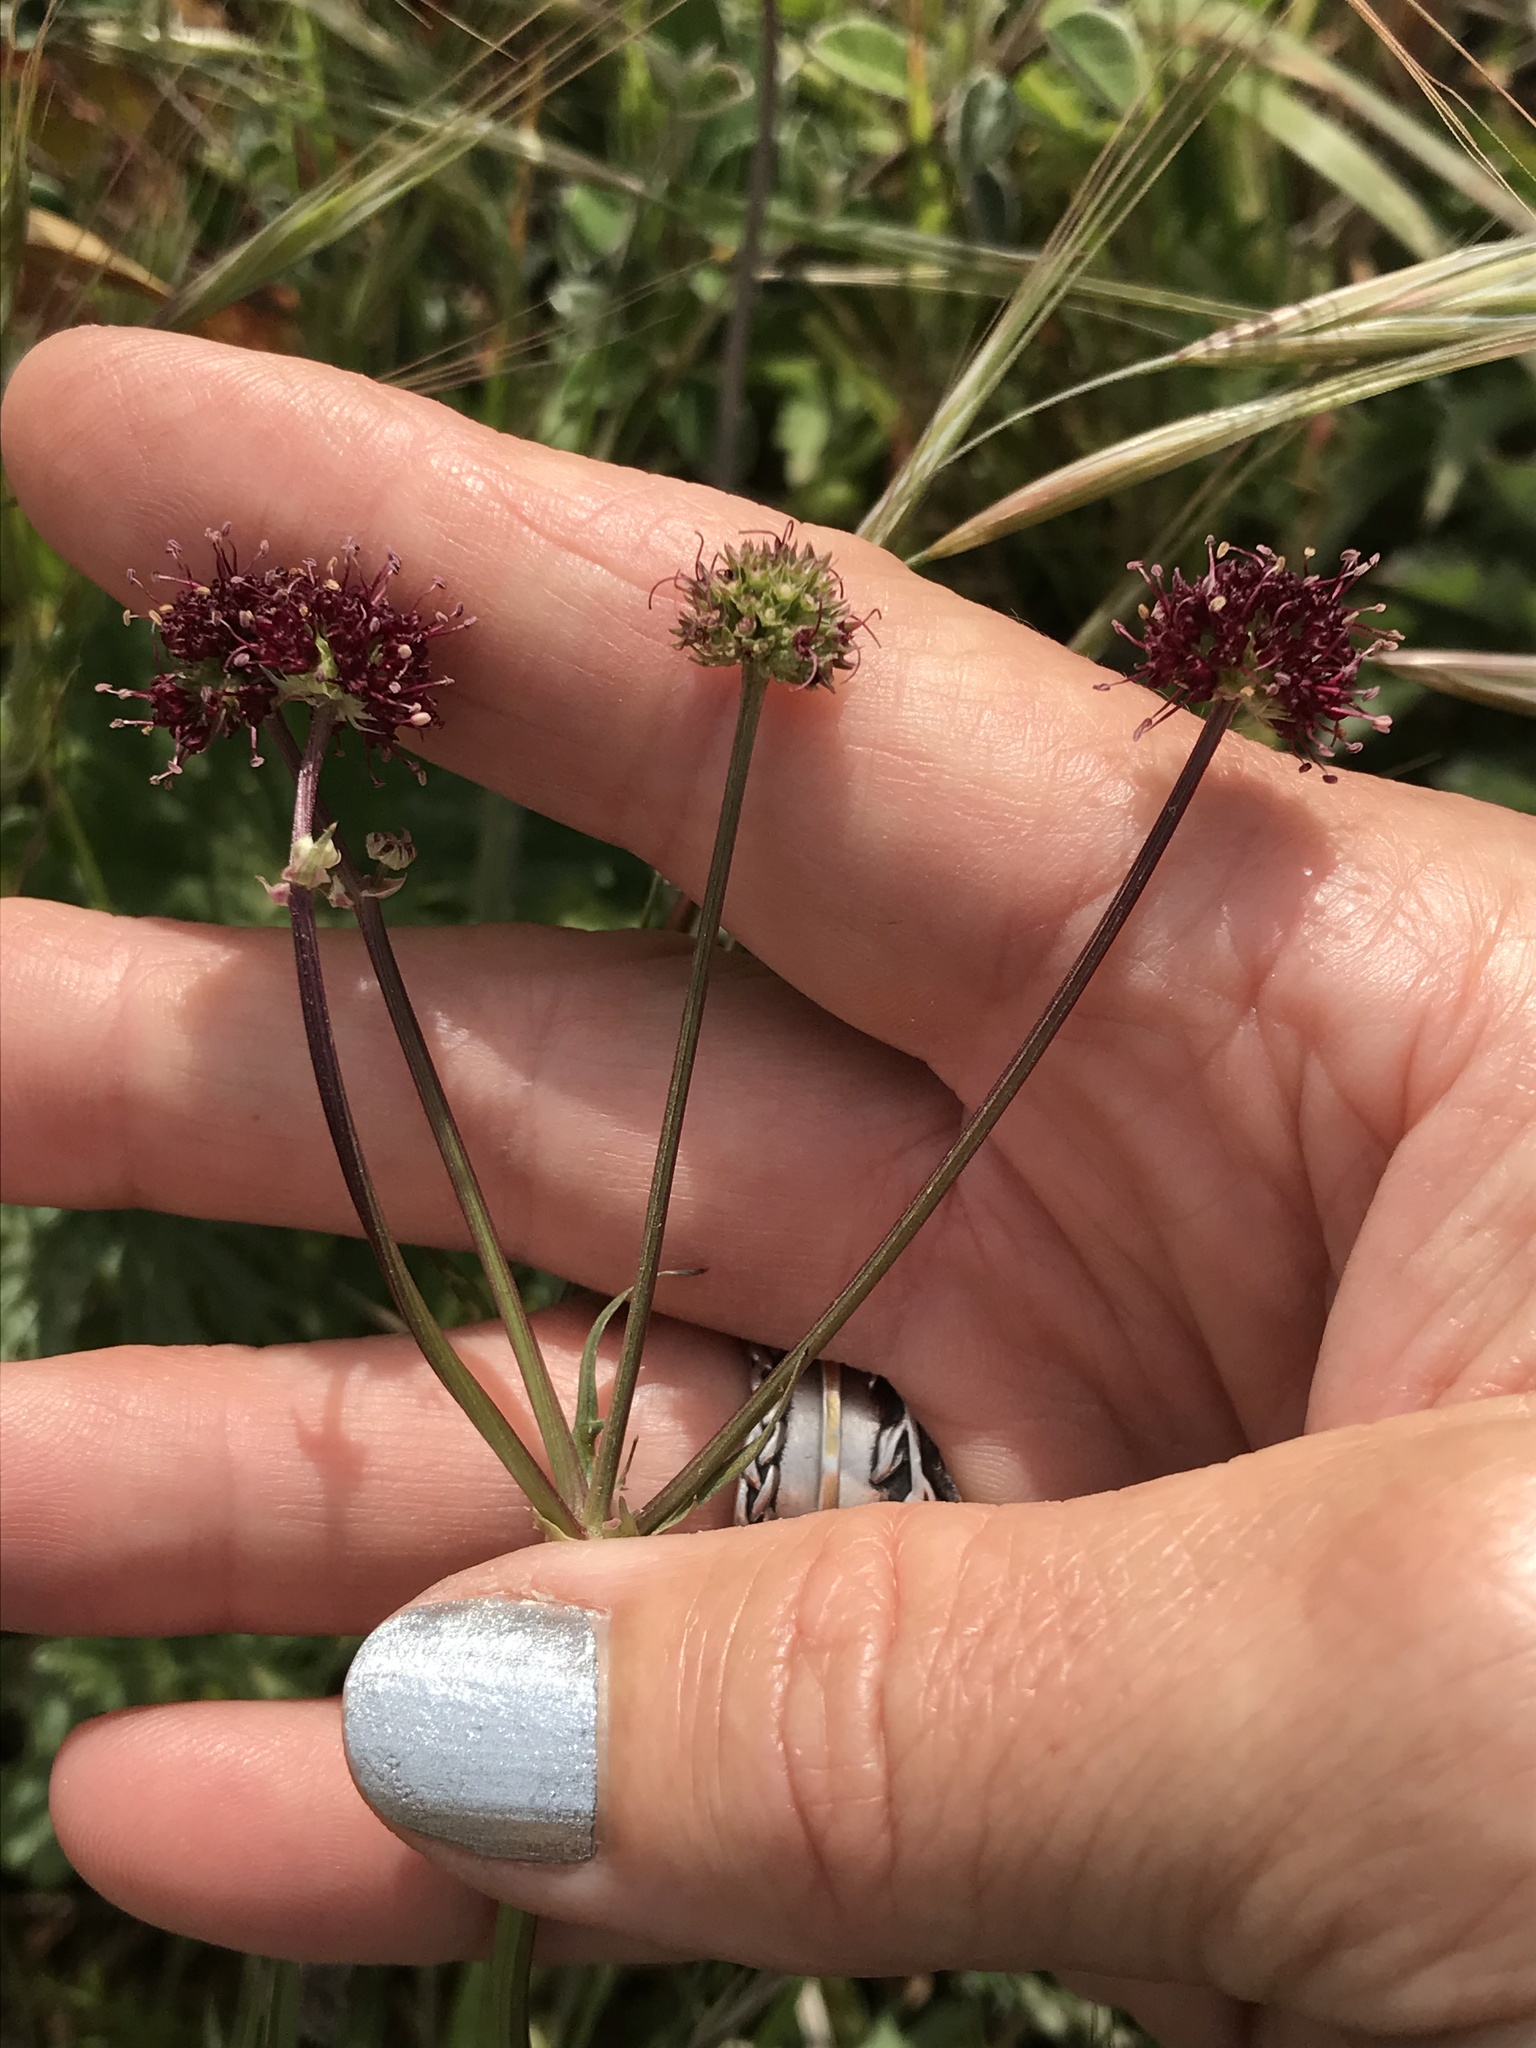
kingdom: Plantae
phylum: Tracheophyta
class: Magnoliopsida
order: Apiales
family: Apiaceae
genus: Sanicula
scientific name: Sanicula bipinnatifida
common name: Shoe-buttons
